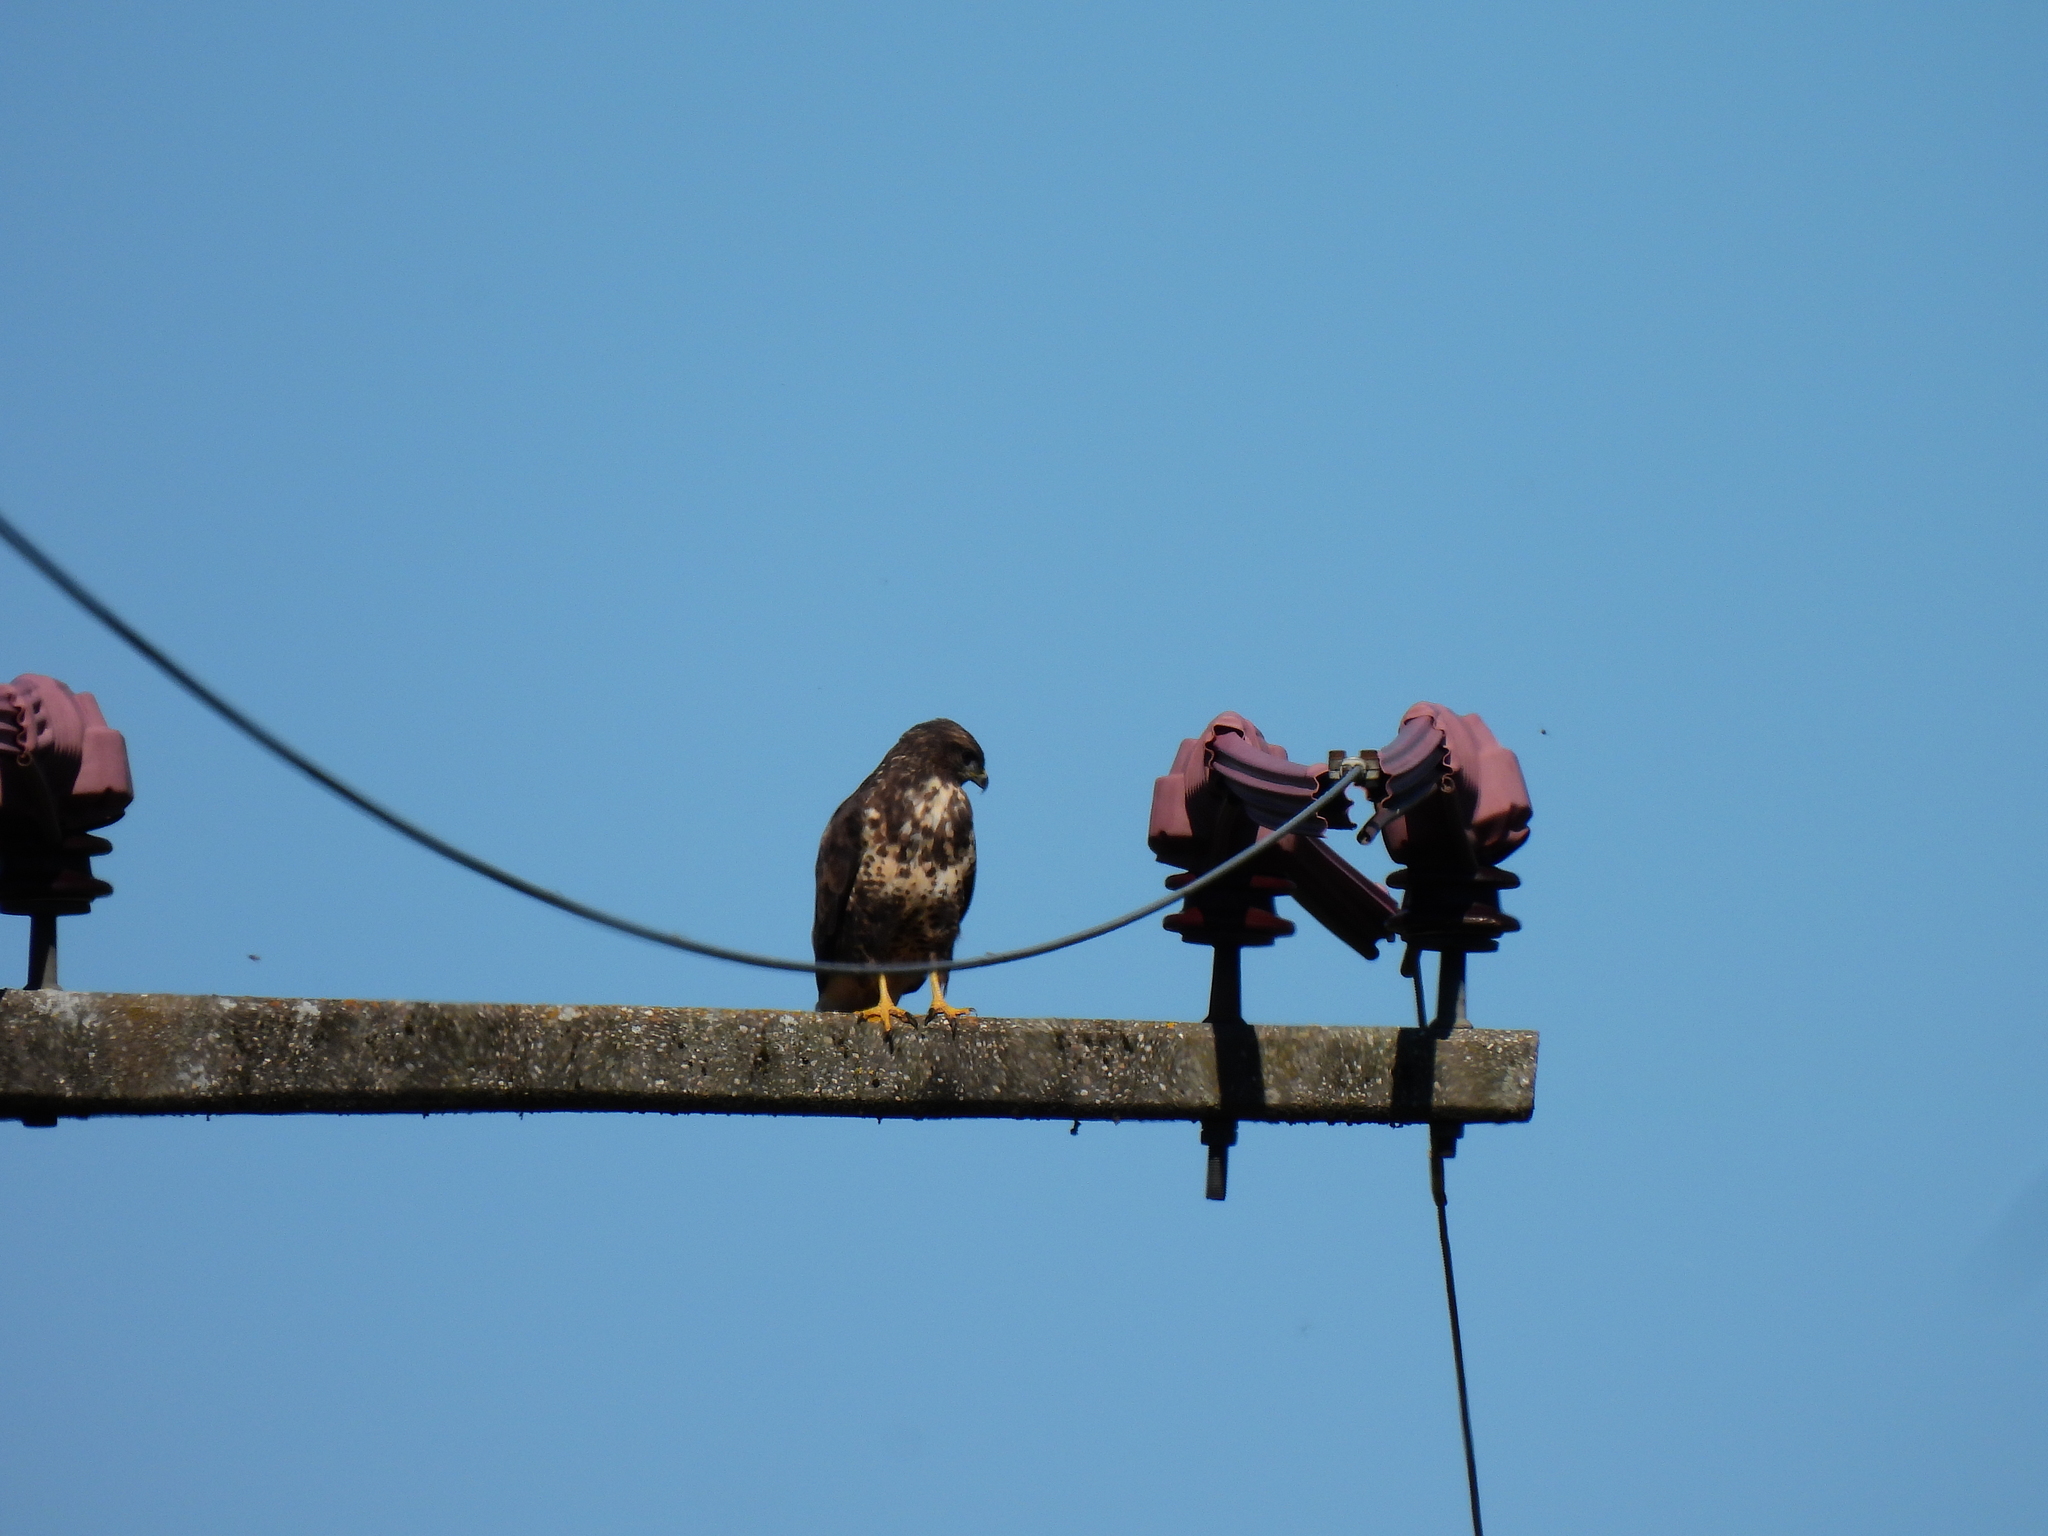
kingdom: Animalia
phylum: Chordata
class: Aves
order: Accipitriformes
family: Accipitridae
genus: Buteo
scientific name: Buteo buteo
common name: Common buzzard
